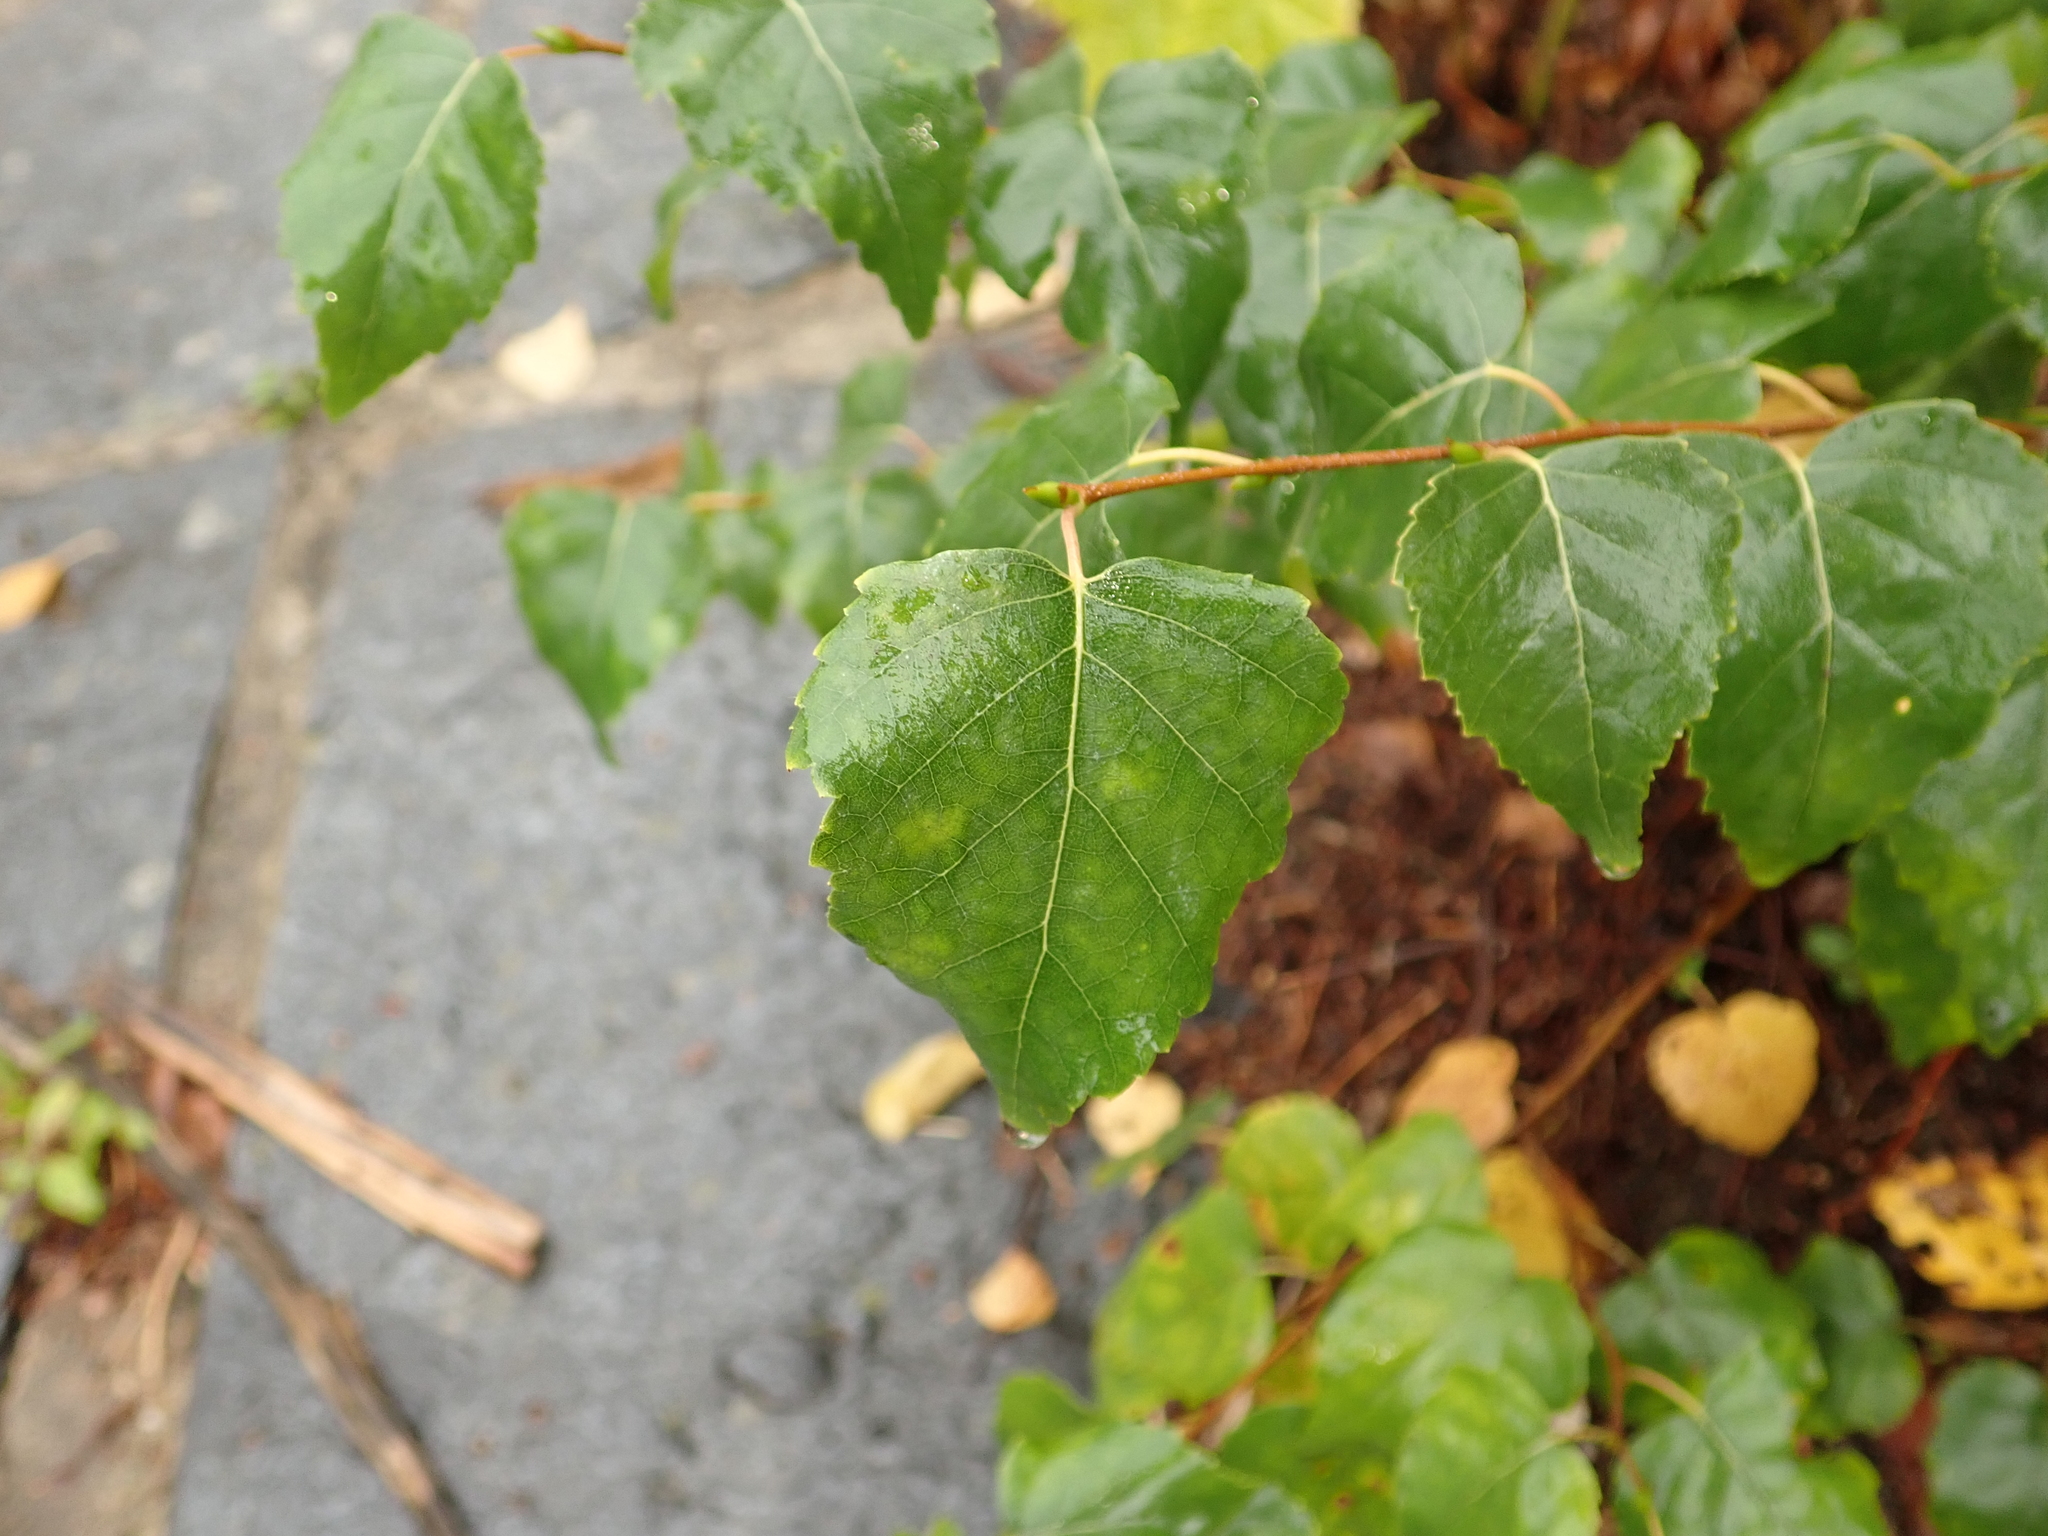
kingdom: Plantae
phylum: Tracheophyta
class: Magnoliopsida
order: Fagales
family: Betulaceae
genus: Betula
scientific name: Betula pendula
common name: Silver birch
